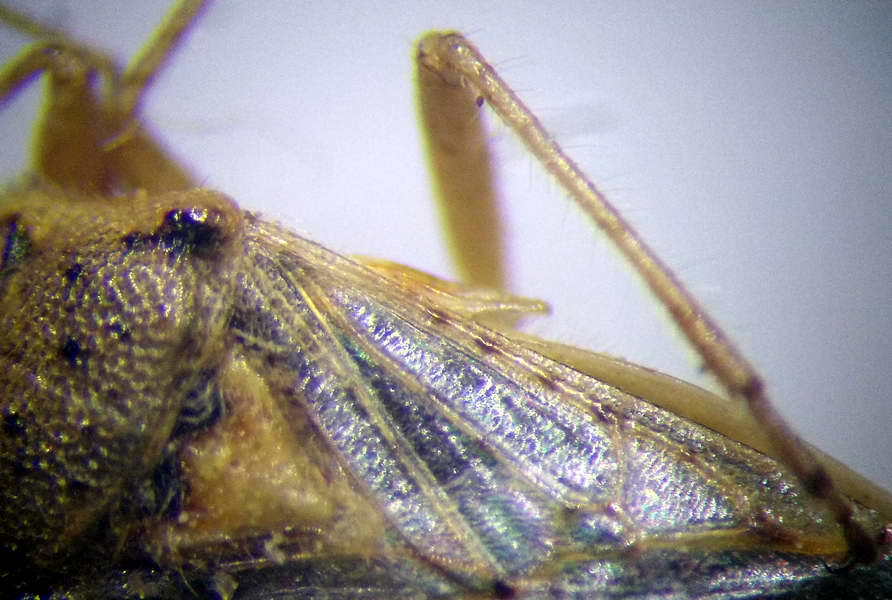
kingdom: Animalia
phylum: Arthropoda
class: Insecta
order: Hemiptera
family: Rhopalidae
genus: Brachycarenus
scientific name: Brachycarenus tigrinus
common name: Scentless plant bug
